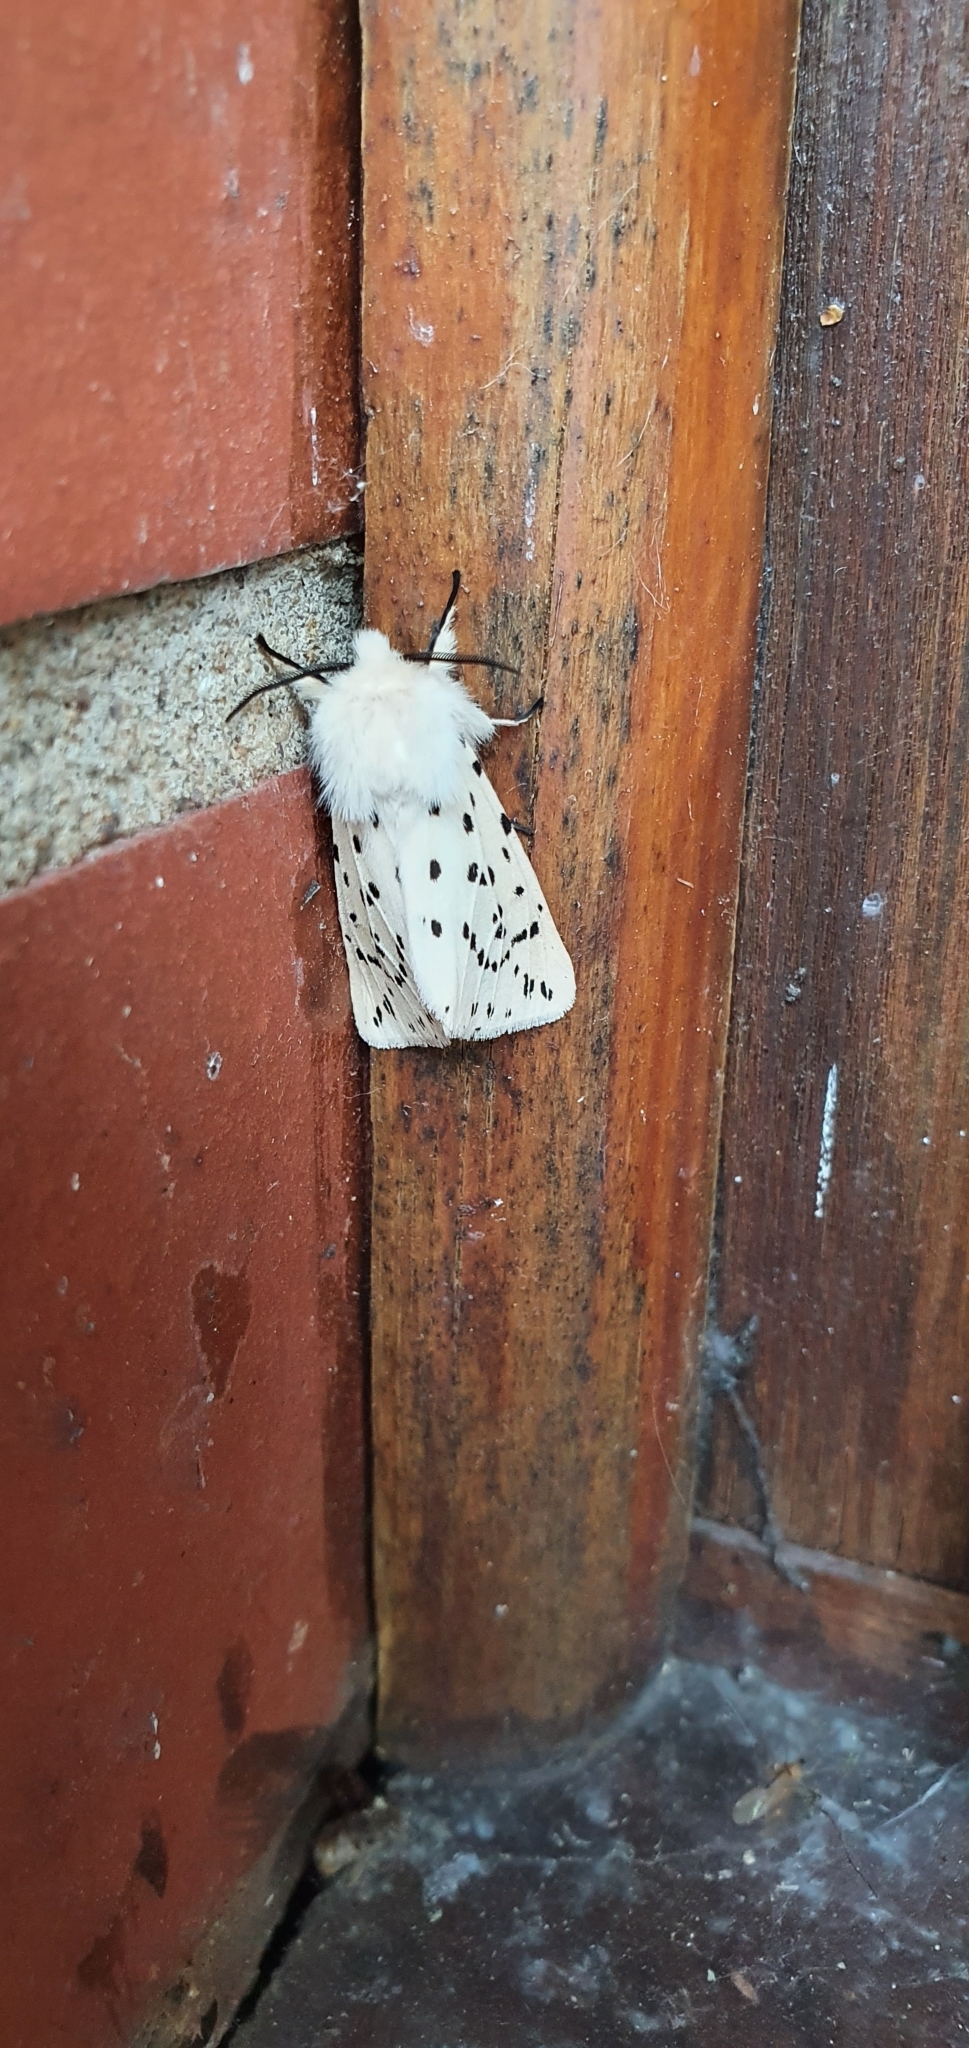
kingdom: Animalia
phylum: Arthropoda
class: Insecta
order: Lepidoptera
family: Erebidae
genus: Spilosoma
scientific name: Spilosoma lubricipeda
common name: White ermine
